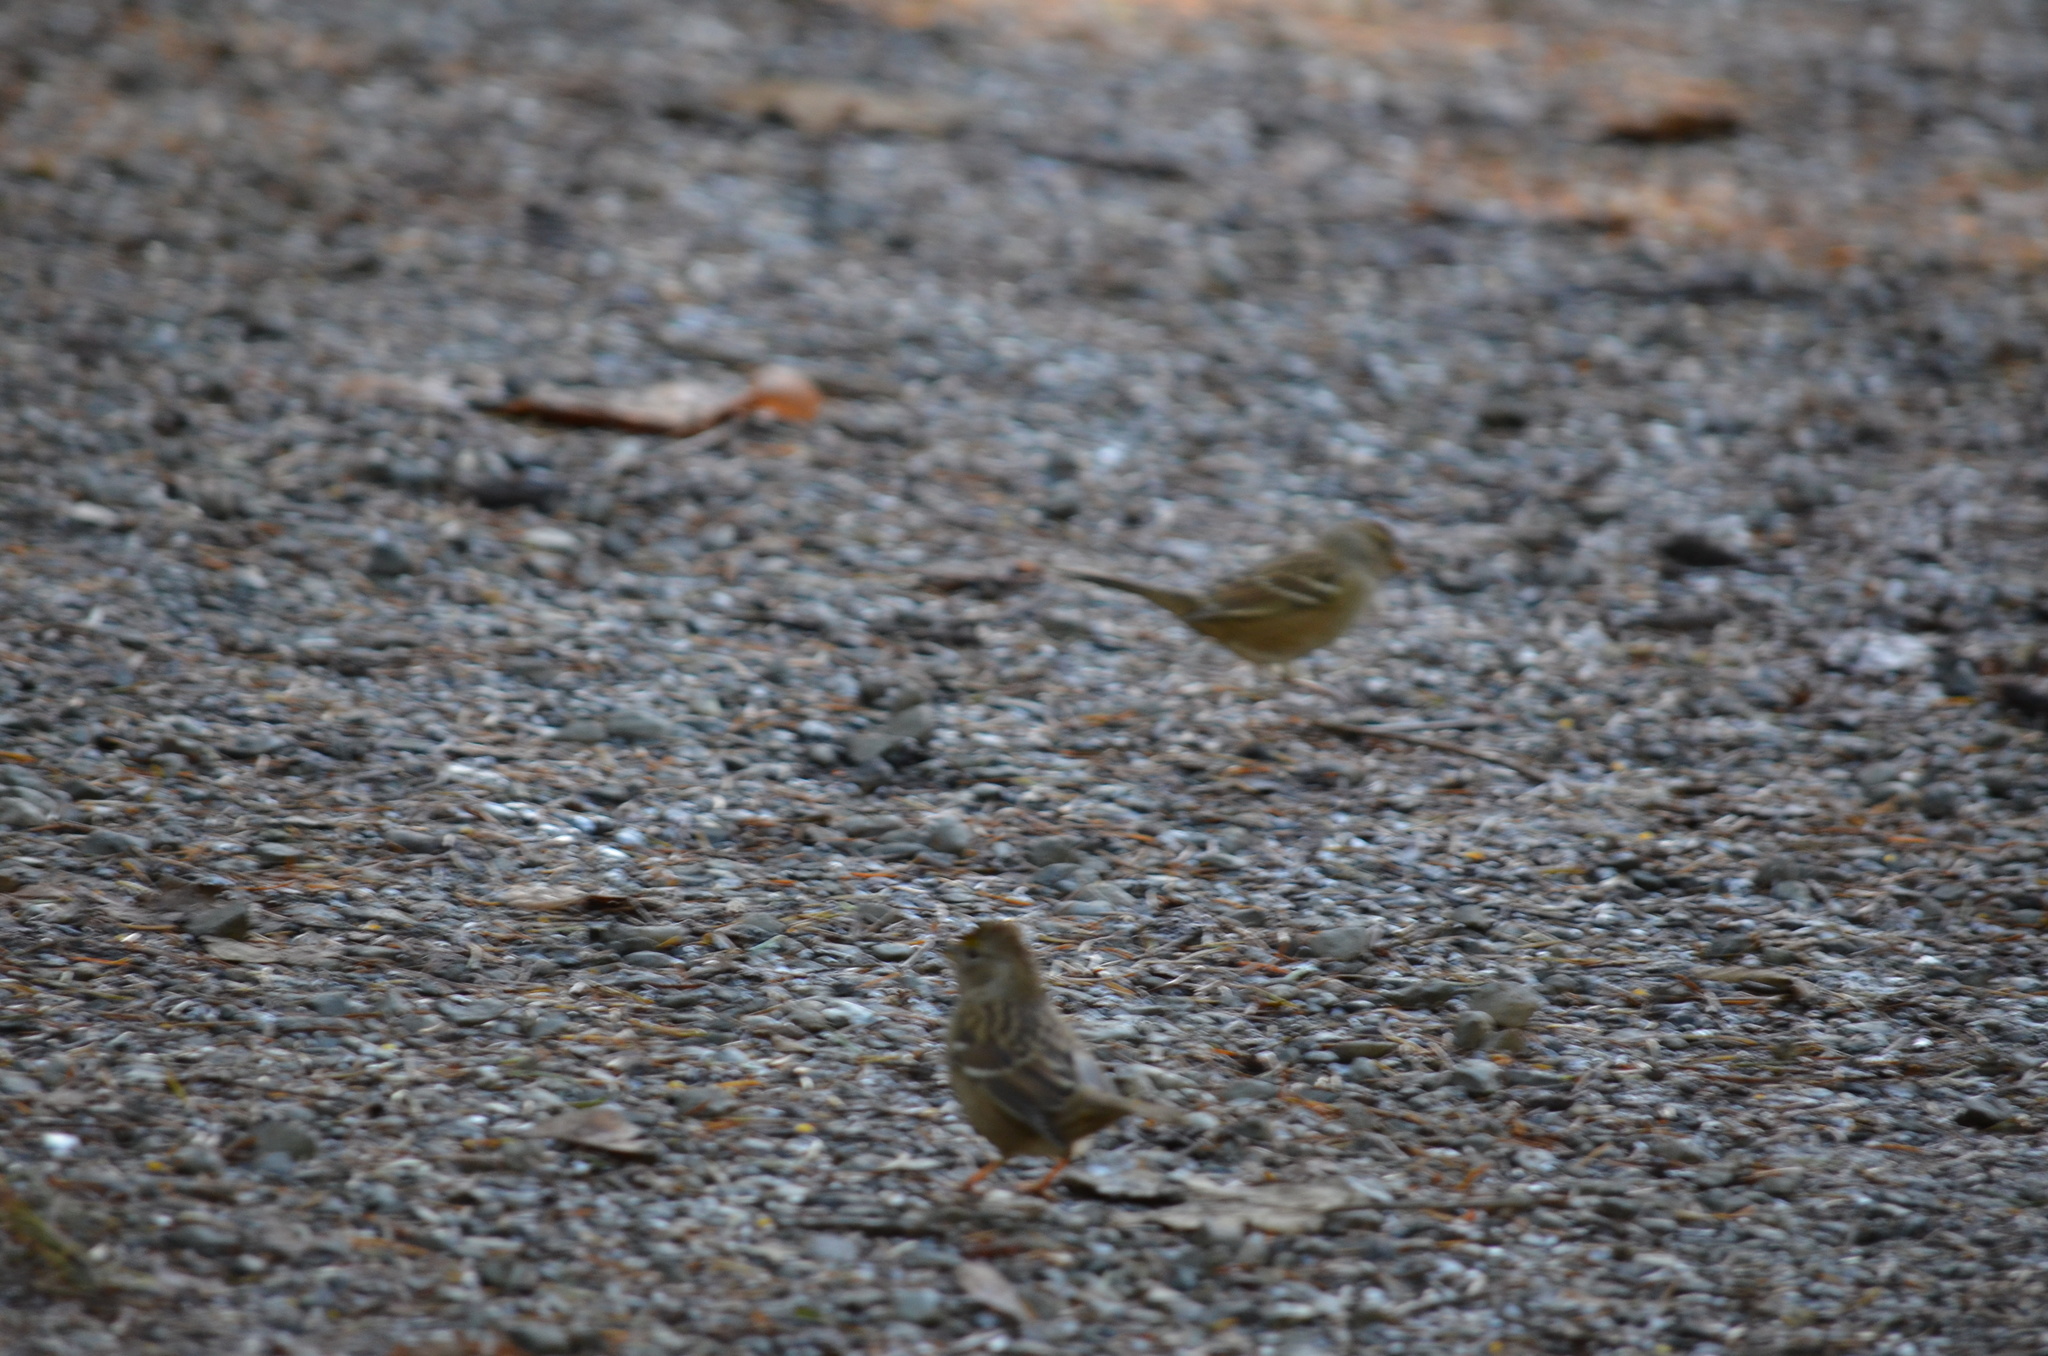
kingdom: Animalia
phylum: Chordata
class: Aves
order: Passeriformes
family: Passerellidae
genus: Zonotrichia
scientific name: Zonotrichia leucophrys
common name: White-crowned sparrow
